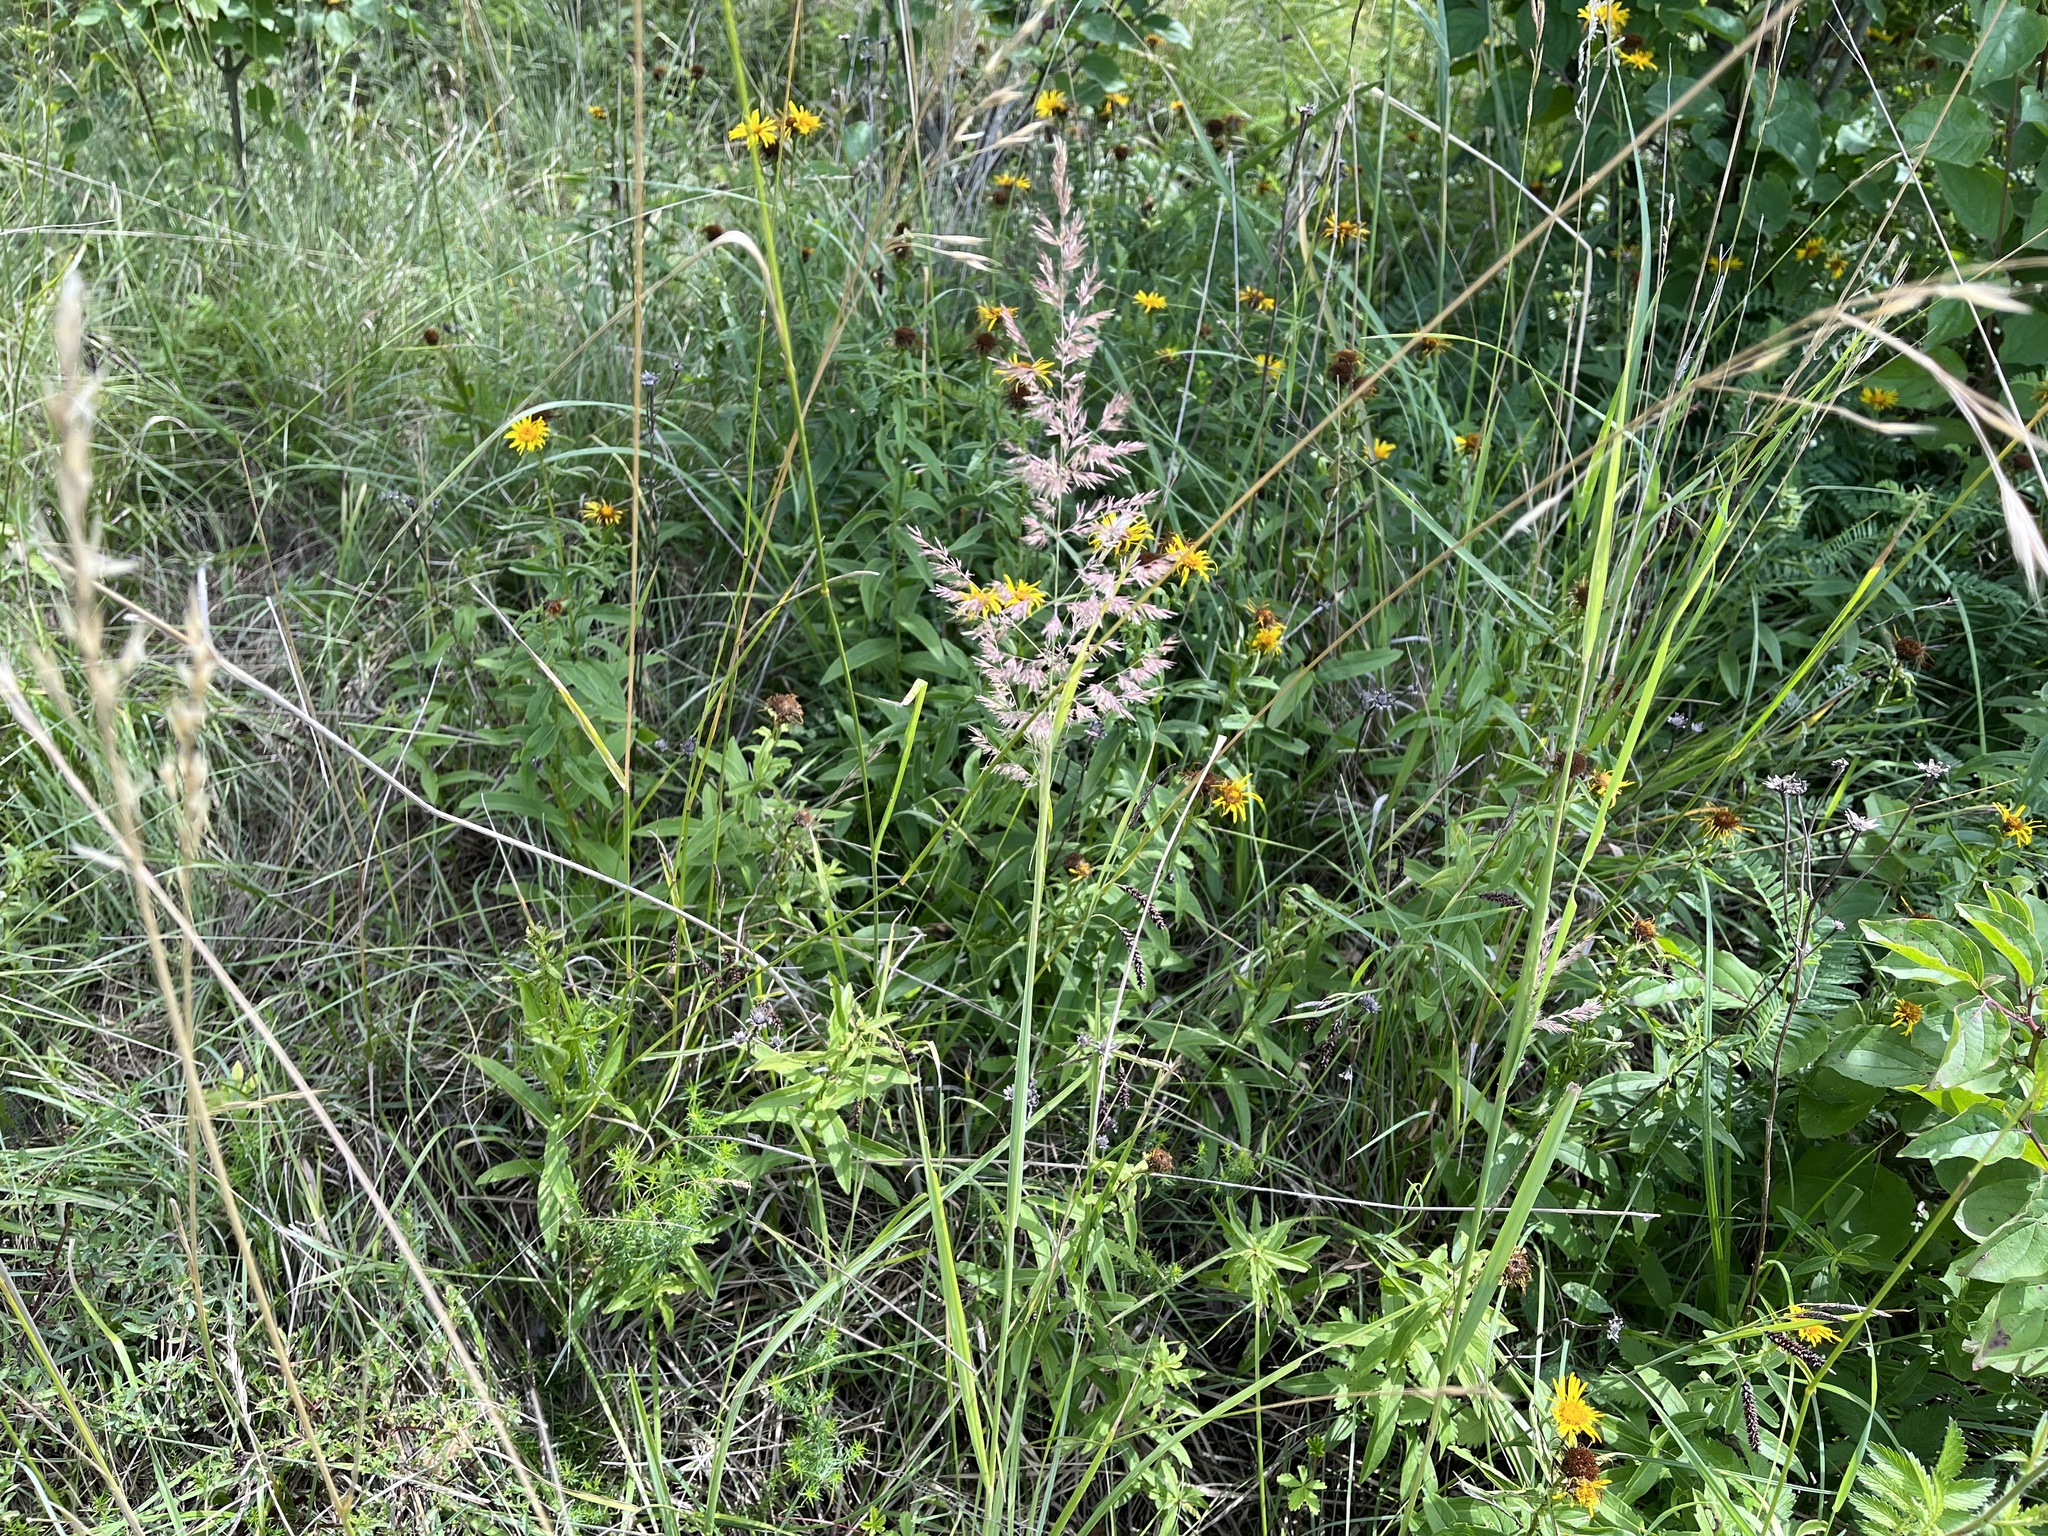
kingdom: Plantae
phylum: Tracheophyta
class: Liliopsida
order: Poales
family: Poaceae
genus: Calamagrostis
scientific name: Calamagrostis epigejos
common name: Wood small-reed
